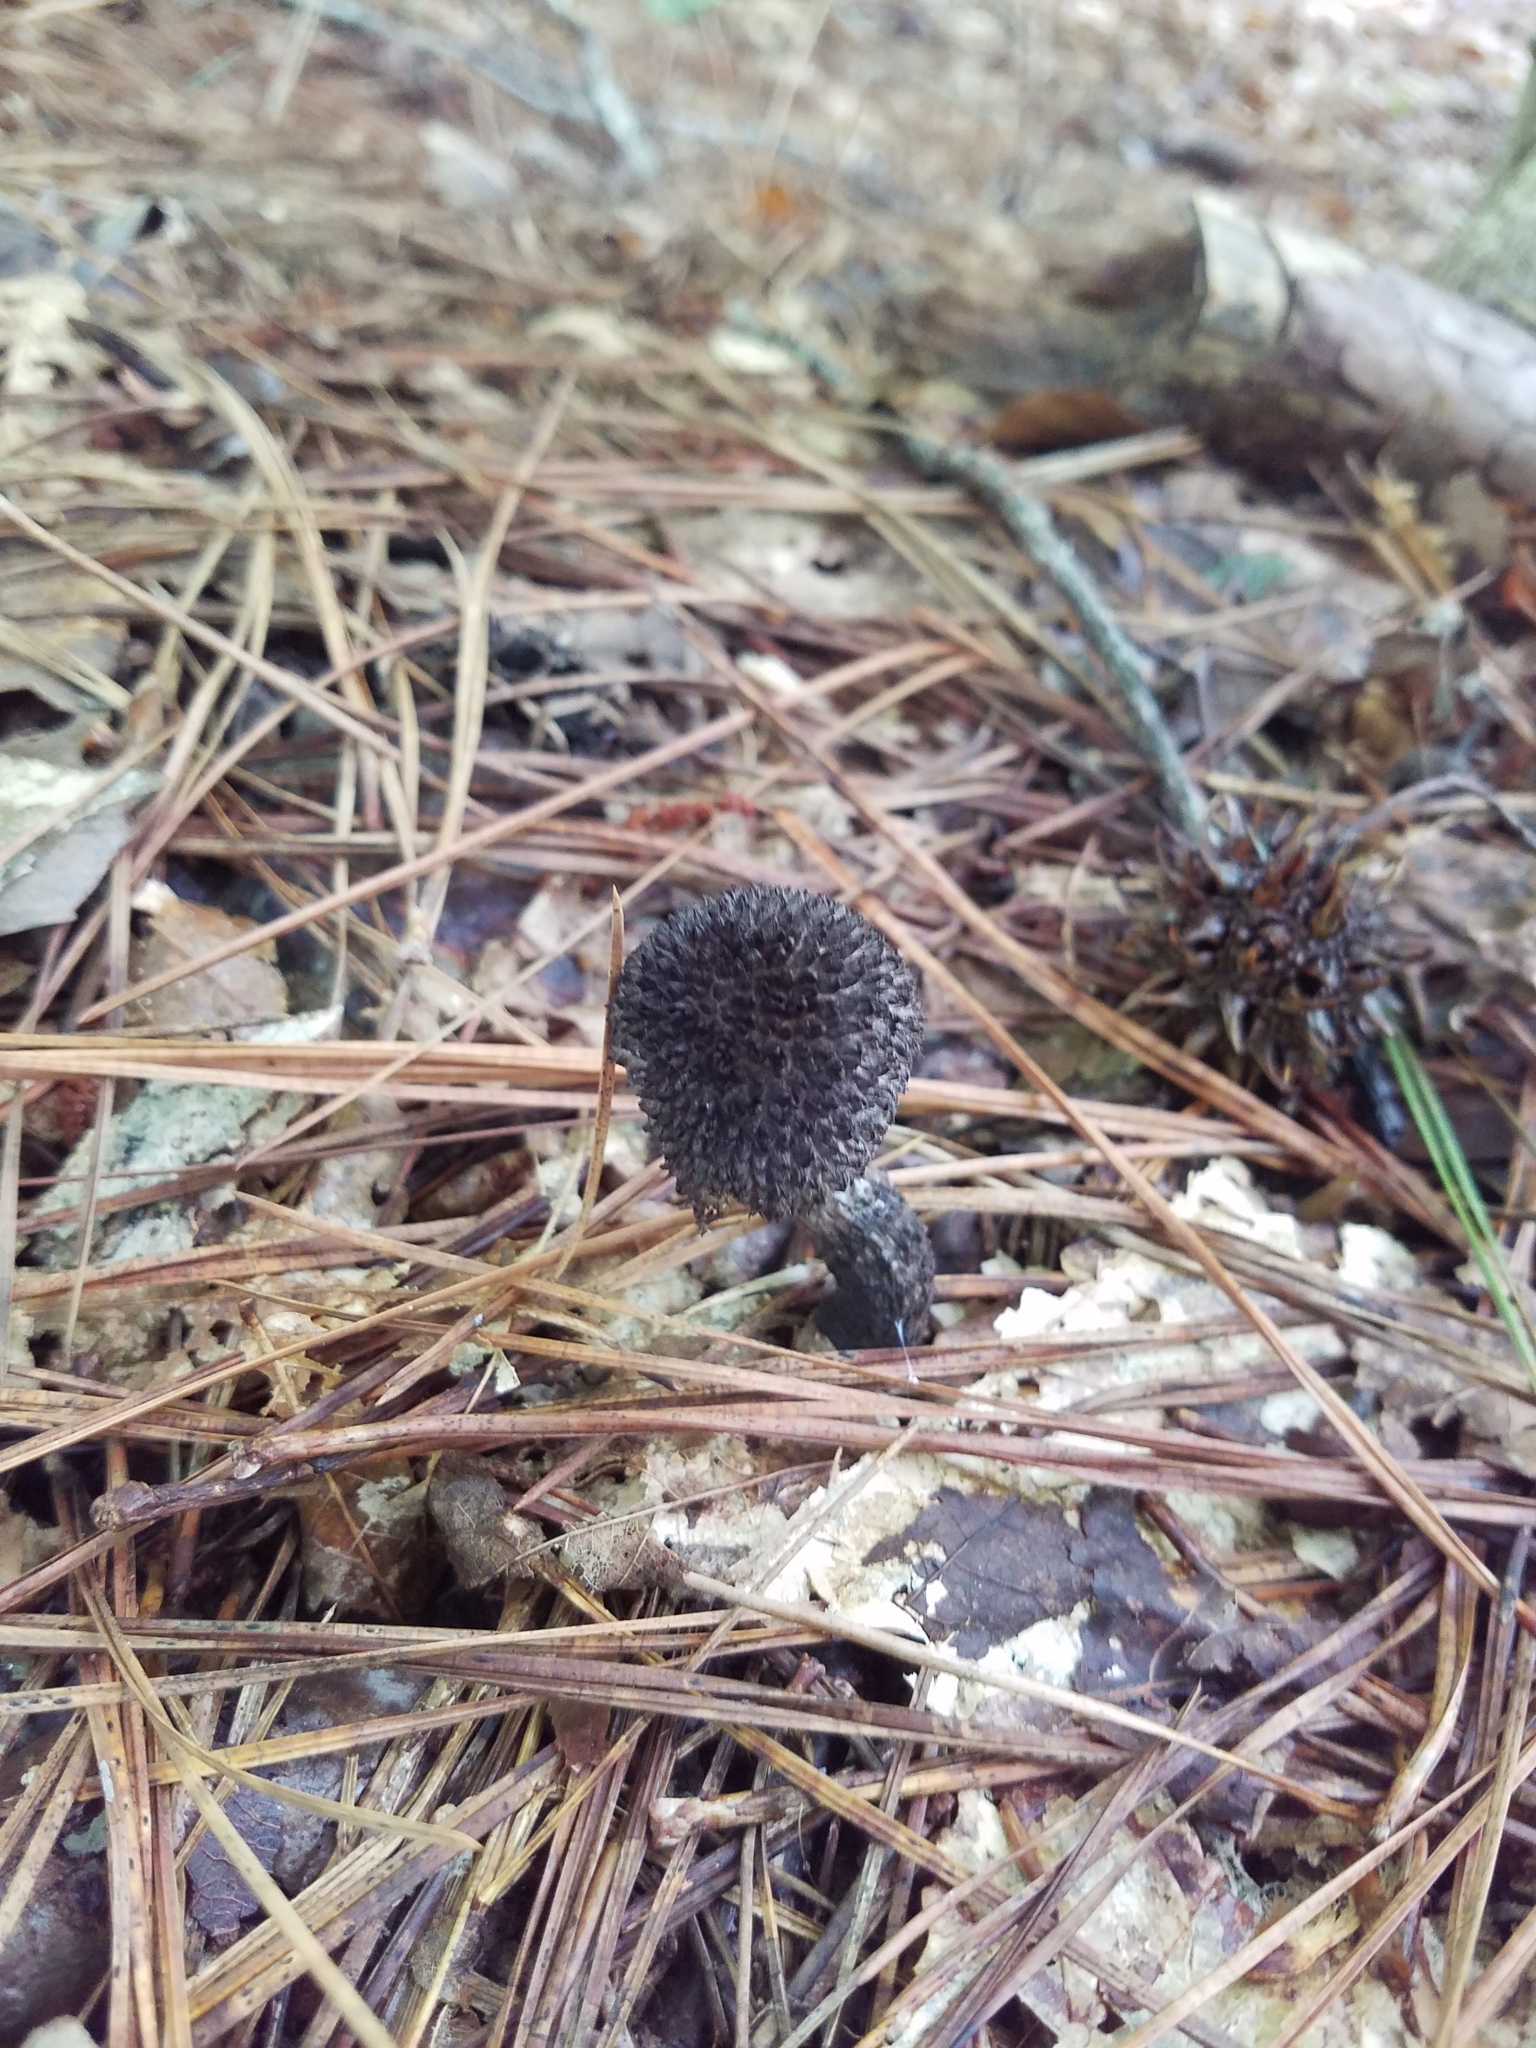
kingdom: Fungi
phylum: Basidiomycota
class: Agaricomycetes
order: Boletales
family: Boletaceae
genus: Strobilomyces
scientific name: Strobilomyces strobilaceus
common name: Old man of the woods
